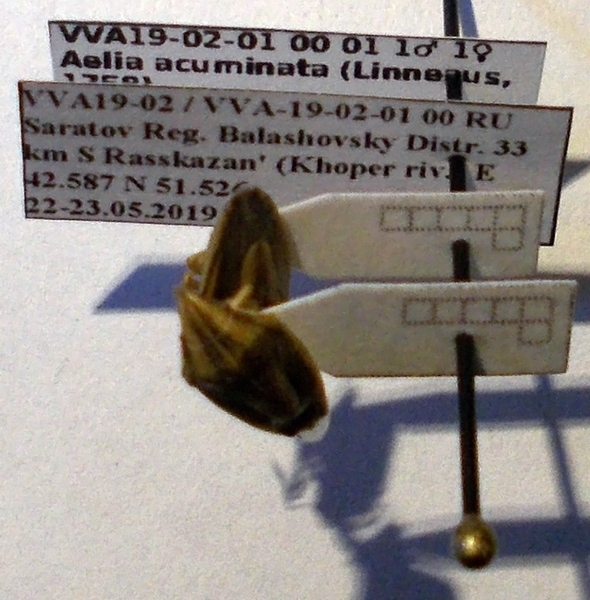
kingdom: Animalia
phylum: Arthropoda
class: Insecta
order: Hemiptera
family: Pentatomidae
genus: Aelia
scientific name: Aelia acuminata
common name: Bishop's mitre
